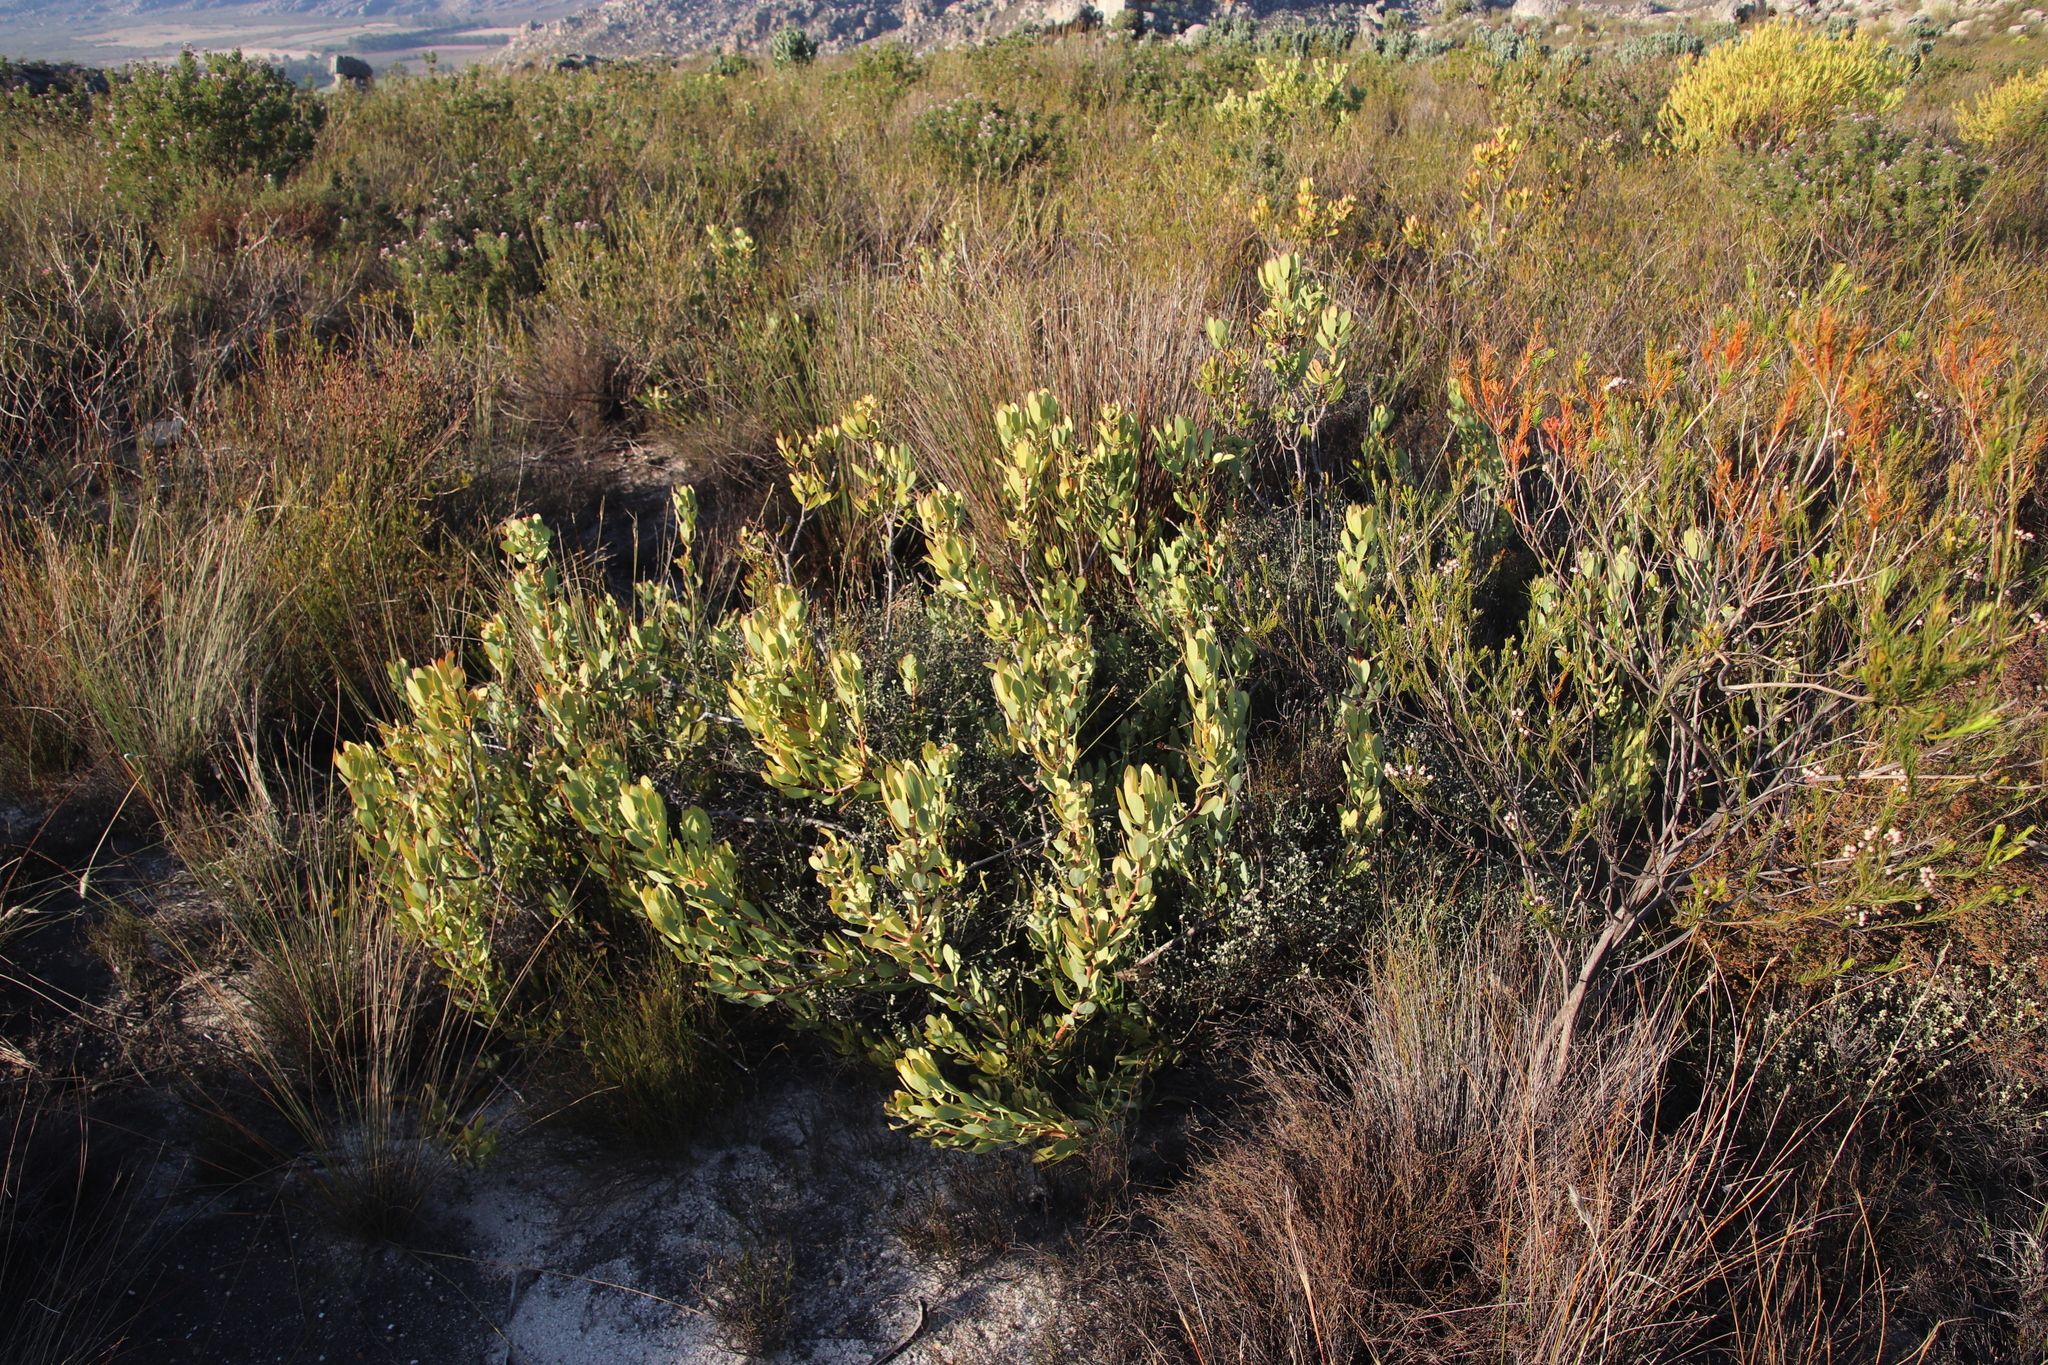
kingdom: Plantae
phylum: Tracheophyta
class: Magnoliopsida
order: Proteales
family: Proteaceae
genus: Leucadendron
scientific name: Leucadendron arcuatum
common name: Red-edge conebush
